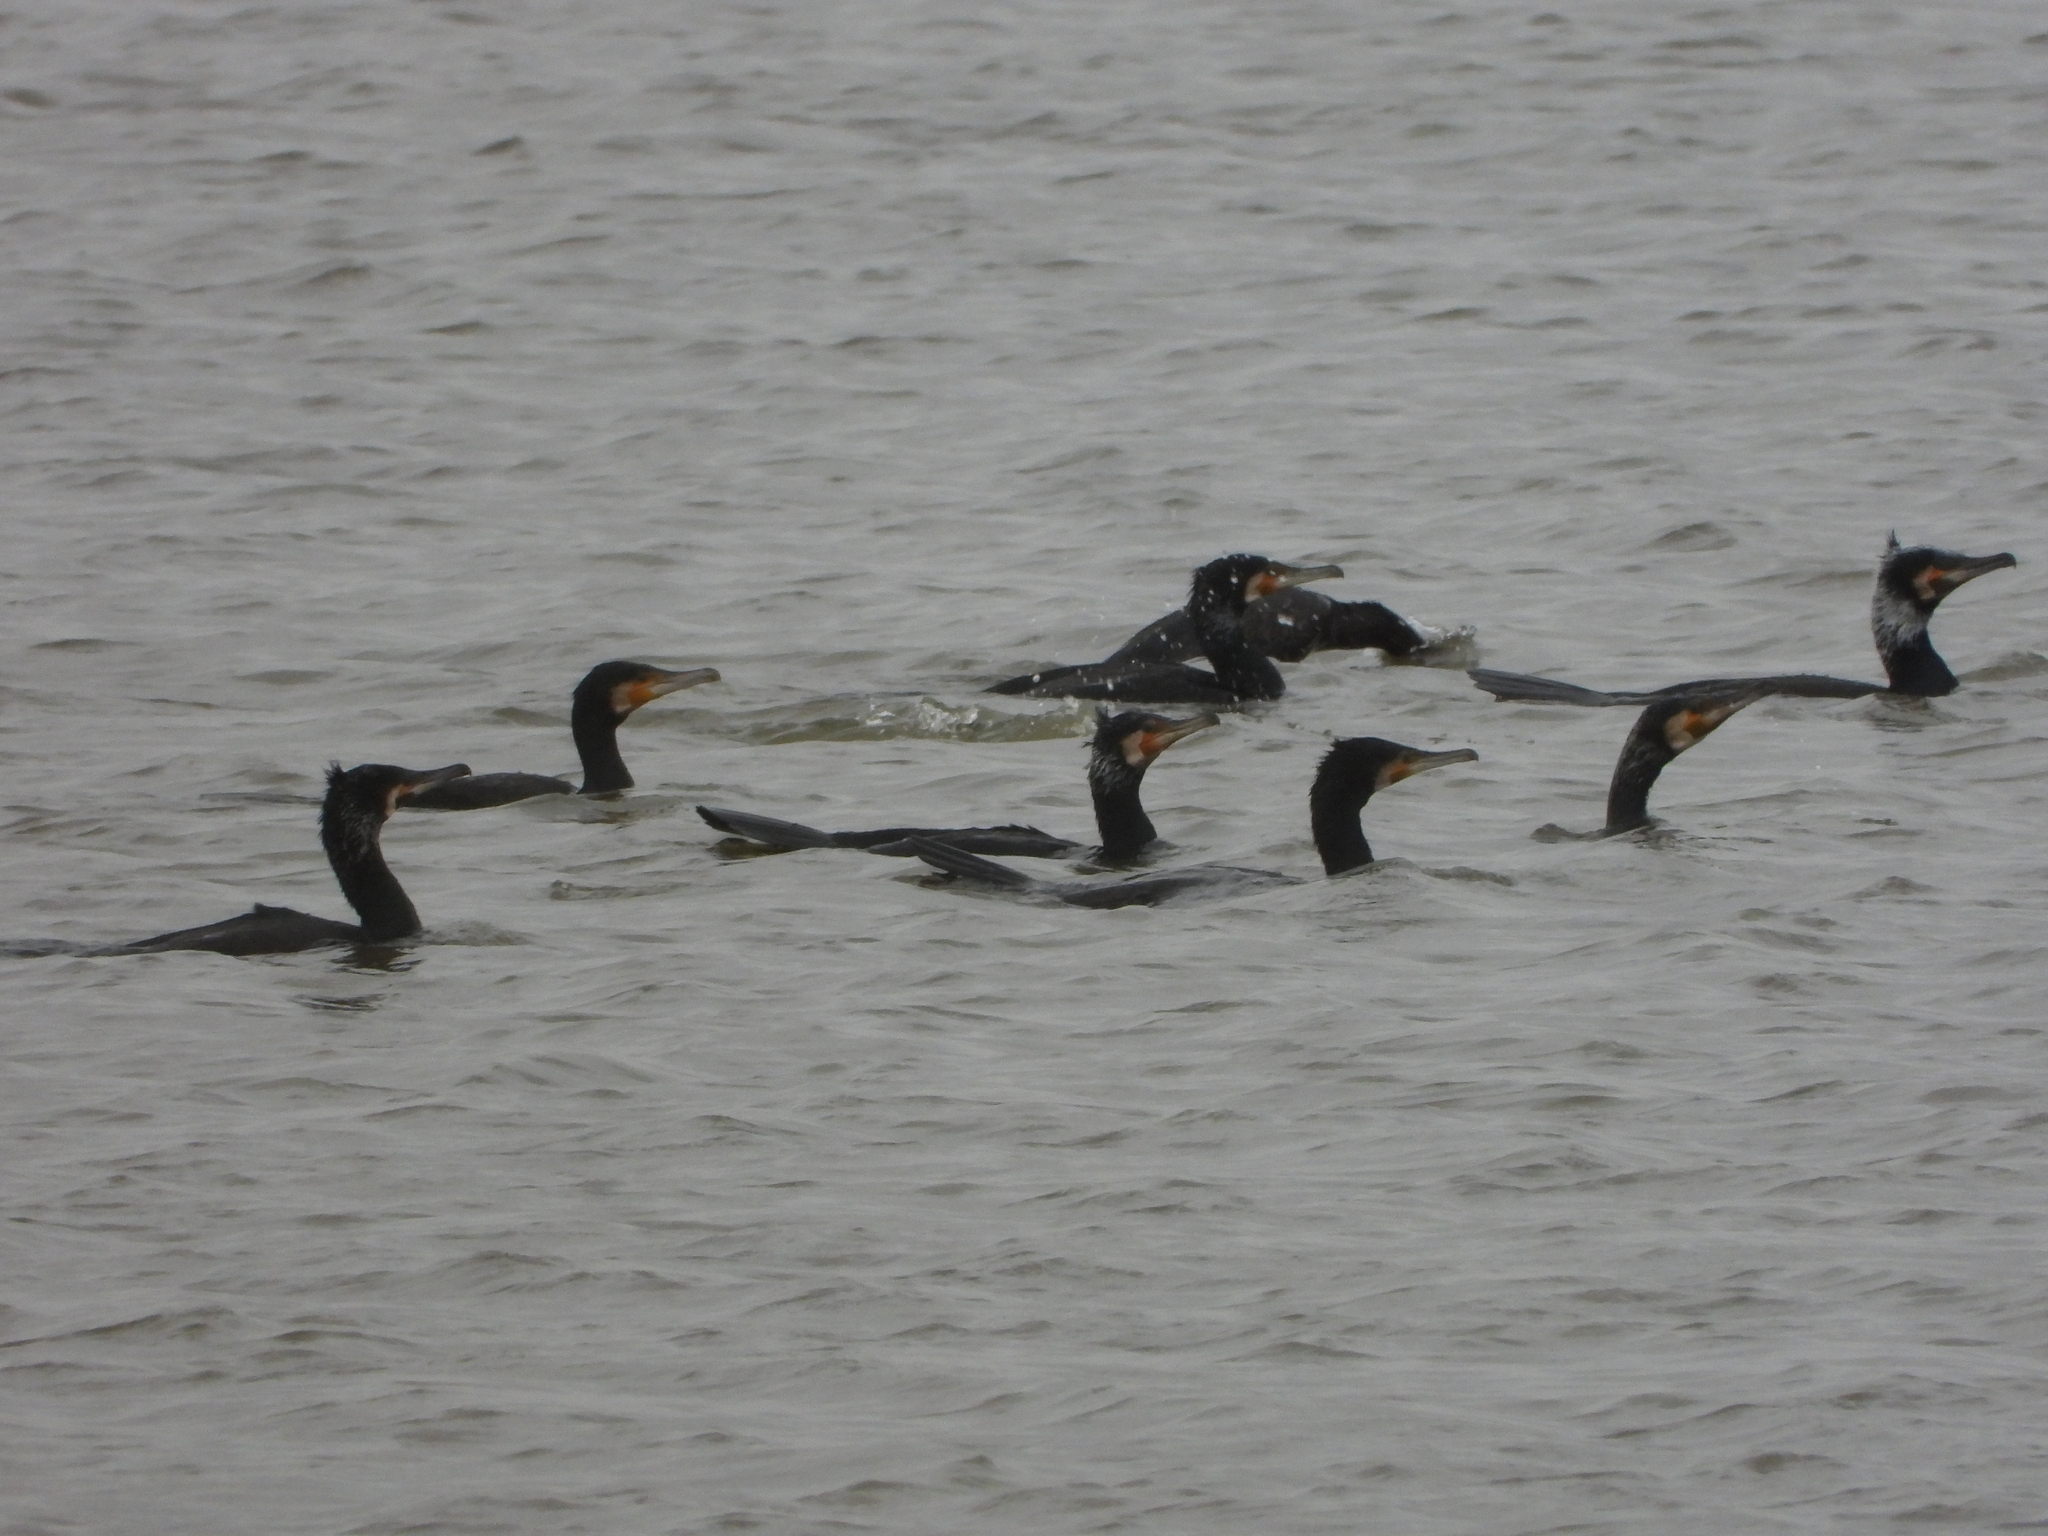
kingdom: Animalia
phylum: Chordata
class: Aves
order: Suliformes
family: Phalacrocoracidae
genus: Phalacrocorax
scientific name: Phalacrocorax carbo
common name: Great cormorant
